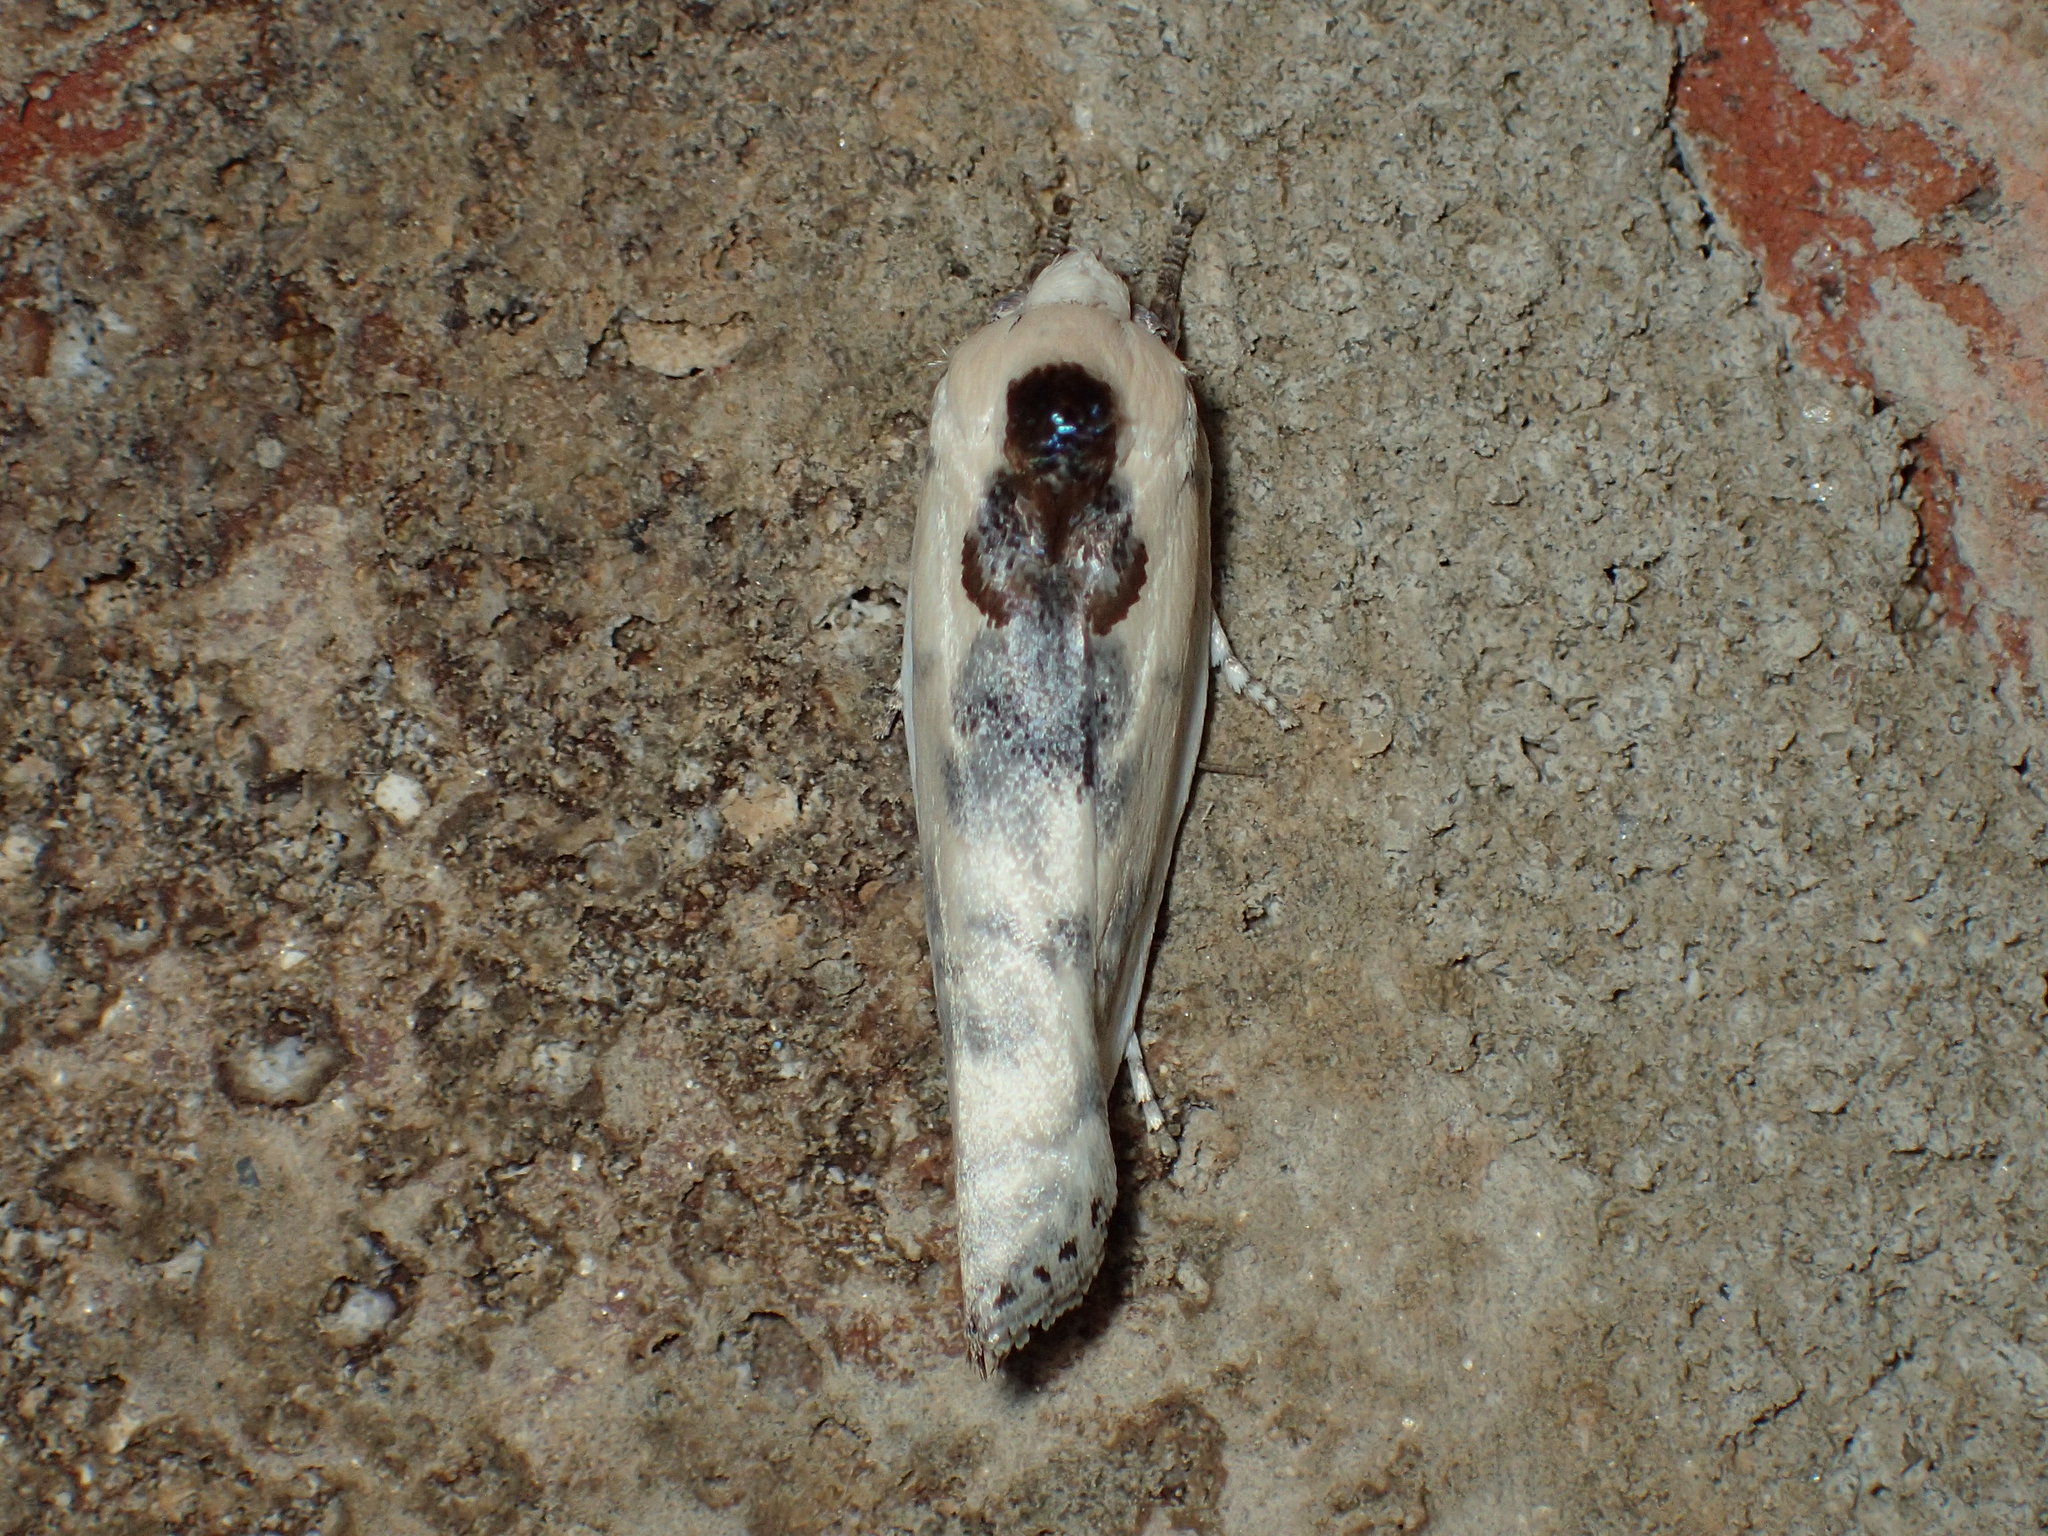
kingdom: Animalia
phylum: Arthropoda
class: Insecta
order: Lepidoptera
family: Depressariidae
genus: Antaeotricha
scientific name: Antaeotricha schlaegeri
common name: Schlaeger's fruitworm moth
